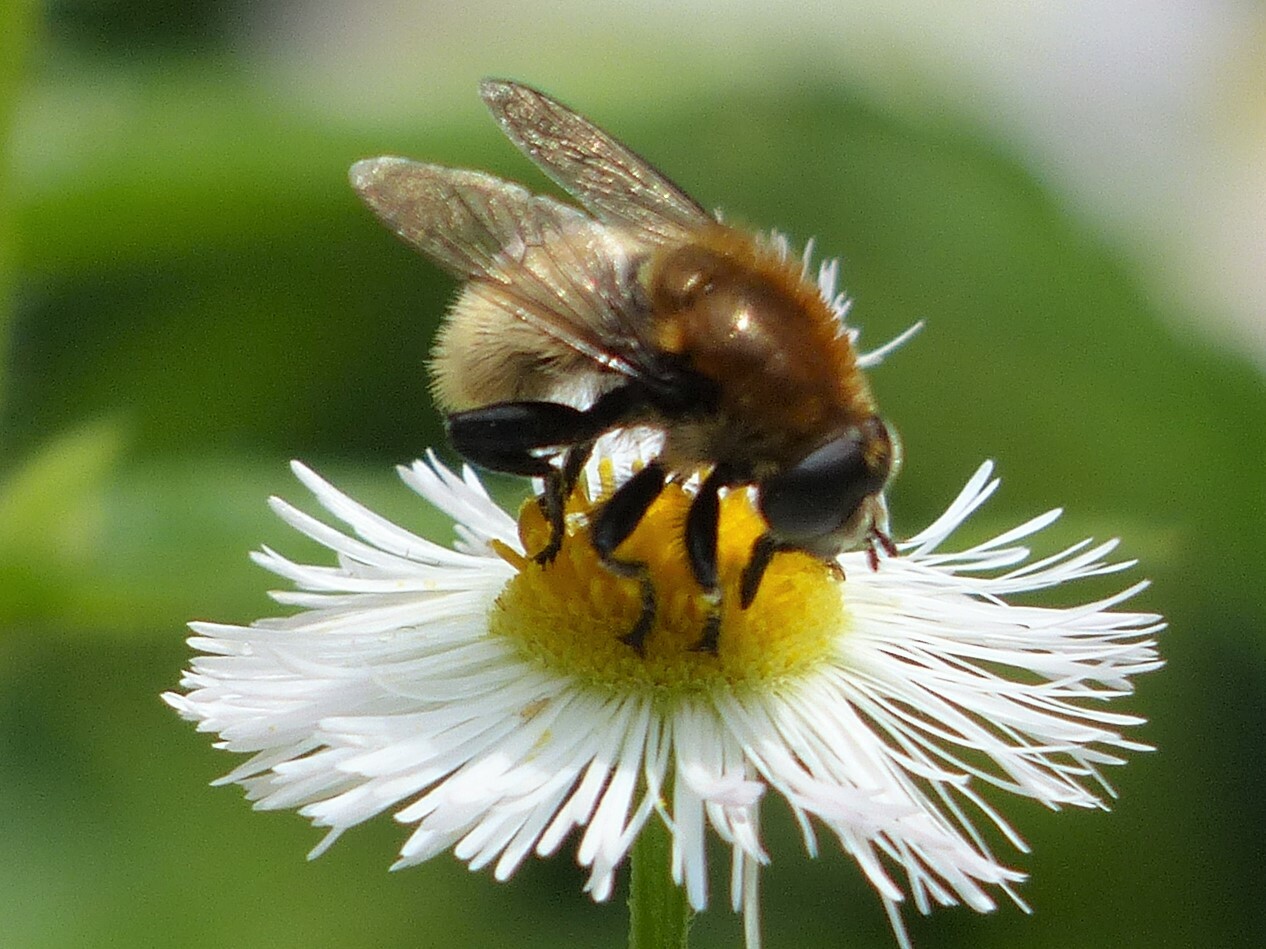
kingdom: Animalia
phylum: Arthropoda
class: Insecta
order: Diptera
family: Syrphidae
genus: Merodon
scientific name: Merodon equestris
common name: Greater bulb-fly
